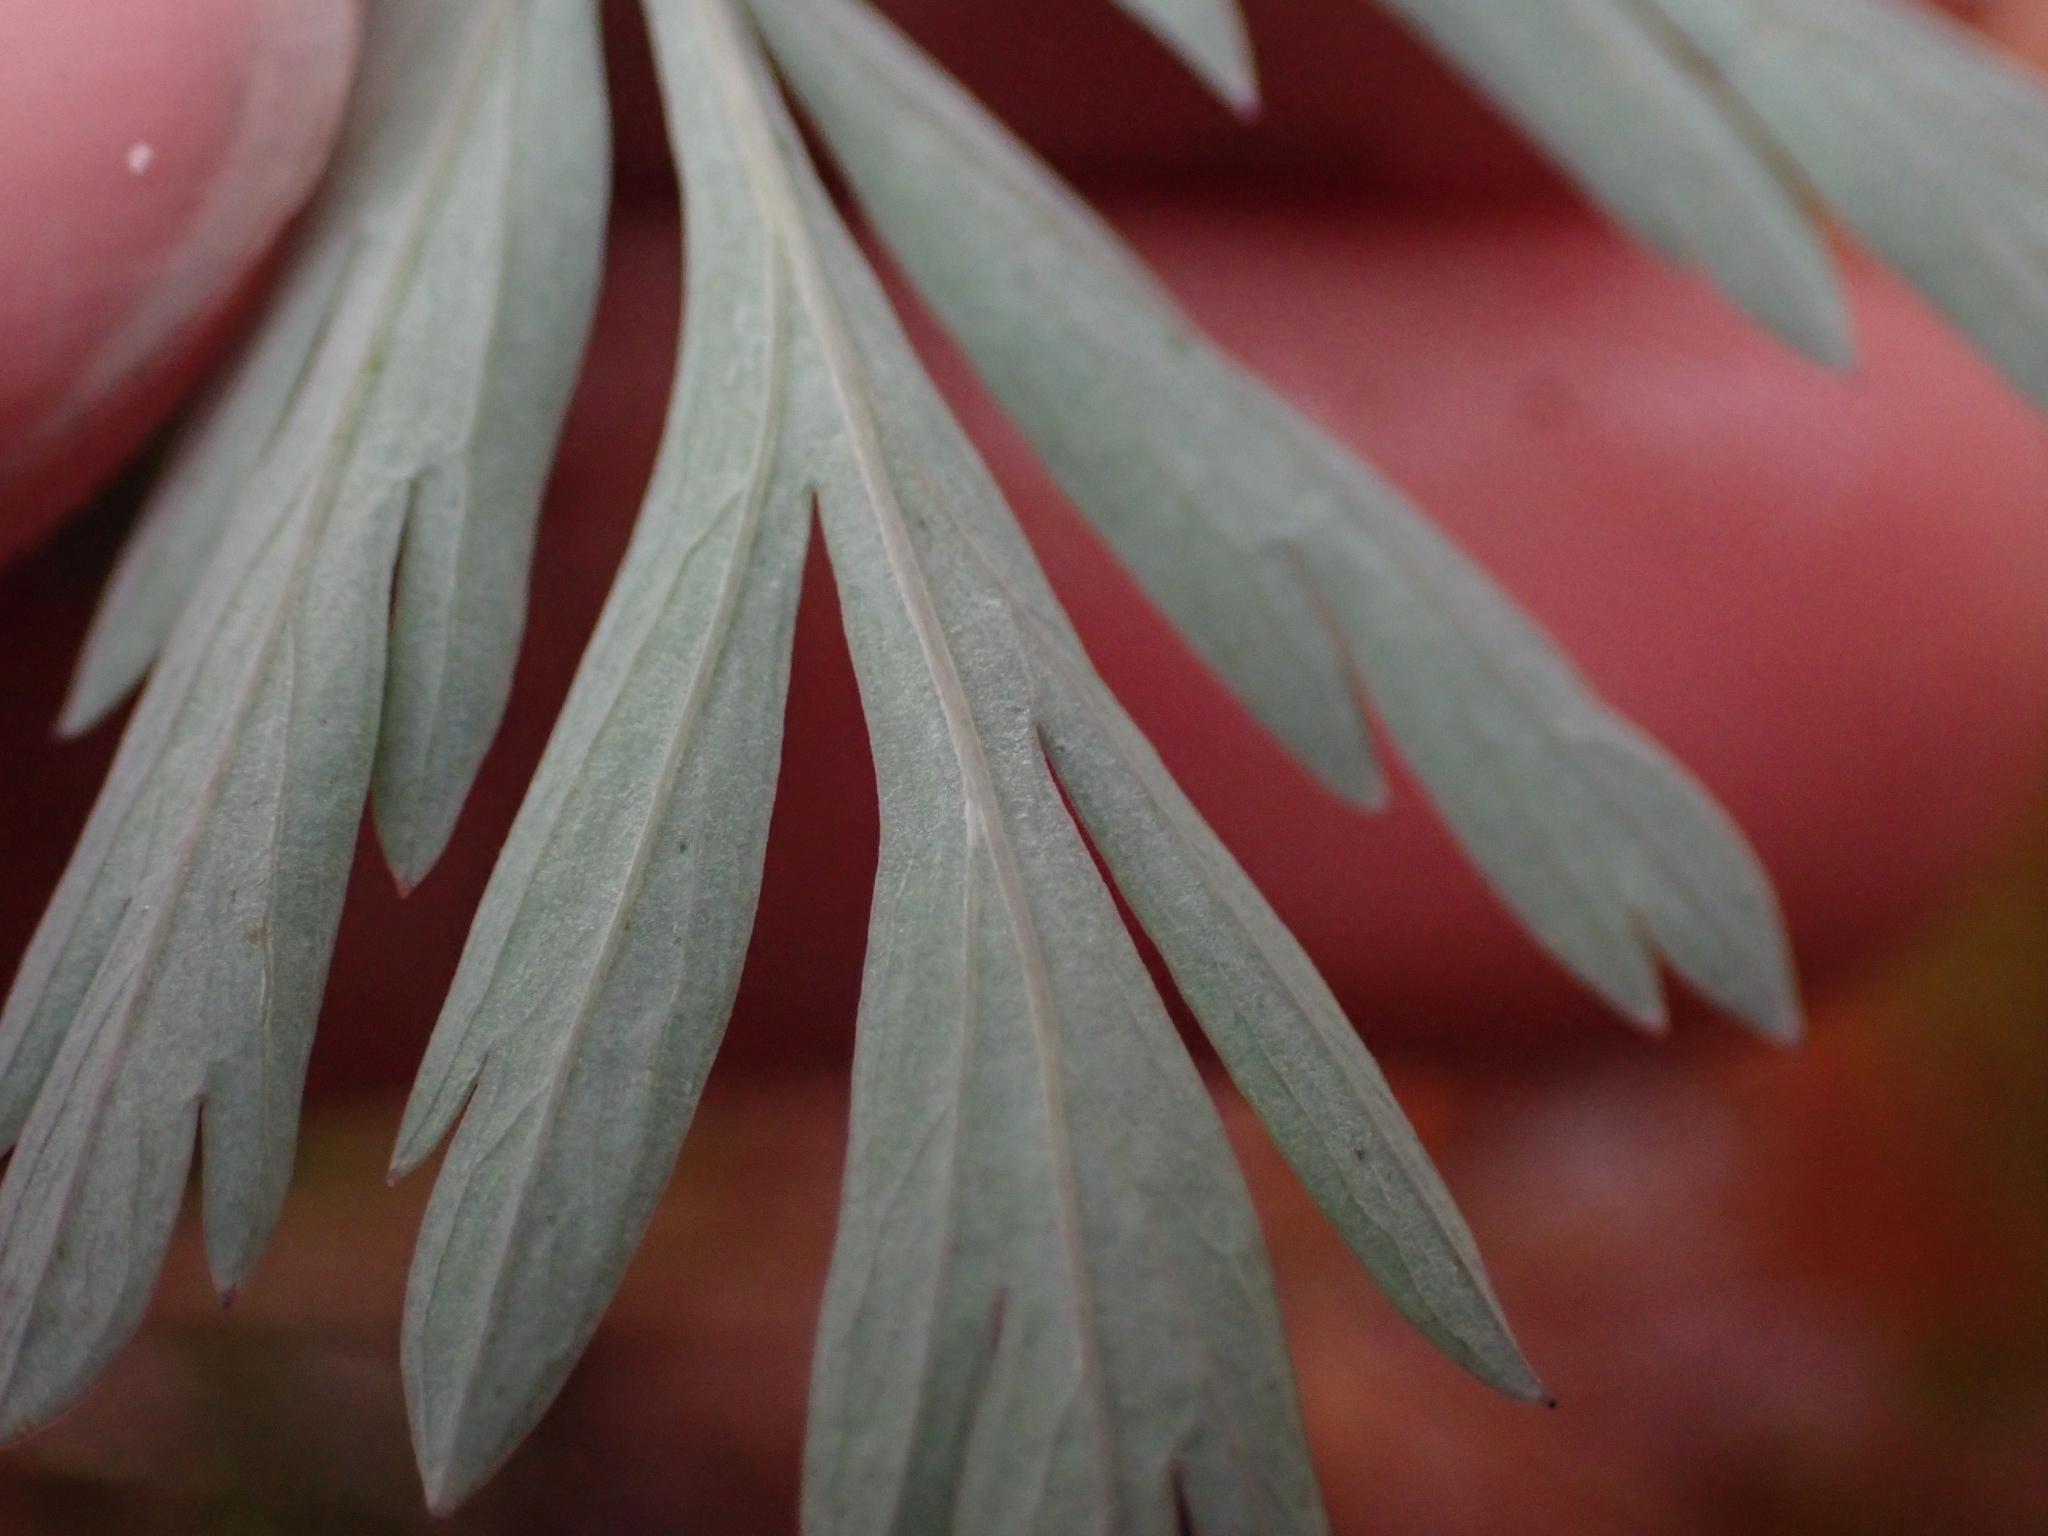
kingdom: Plantae
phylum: Tracheophyta
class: Magnoliopsida
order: Ranunculales
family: Papaveraceae
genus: Dicentra
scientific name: Dicentra formosa
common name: Bleeding-heart
